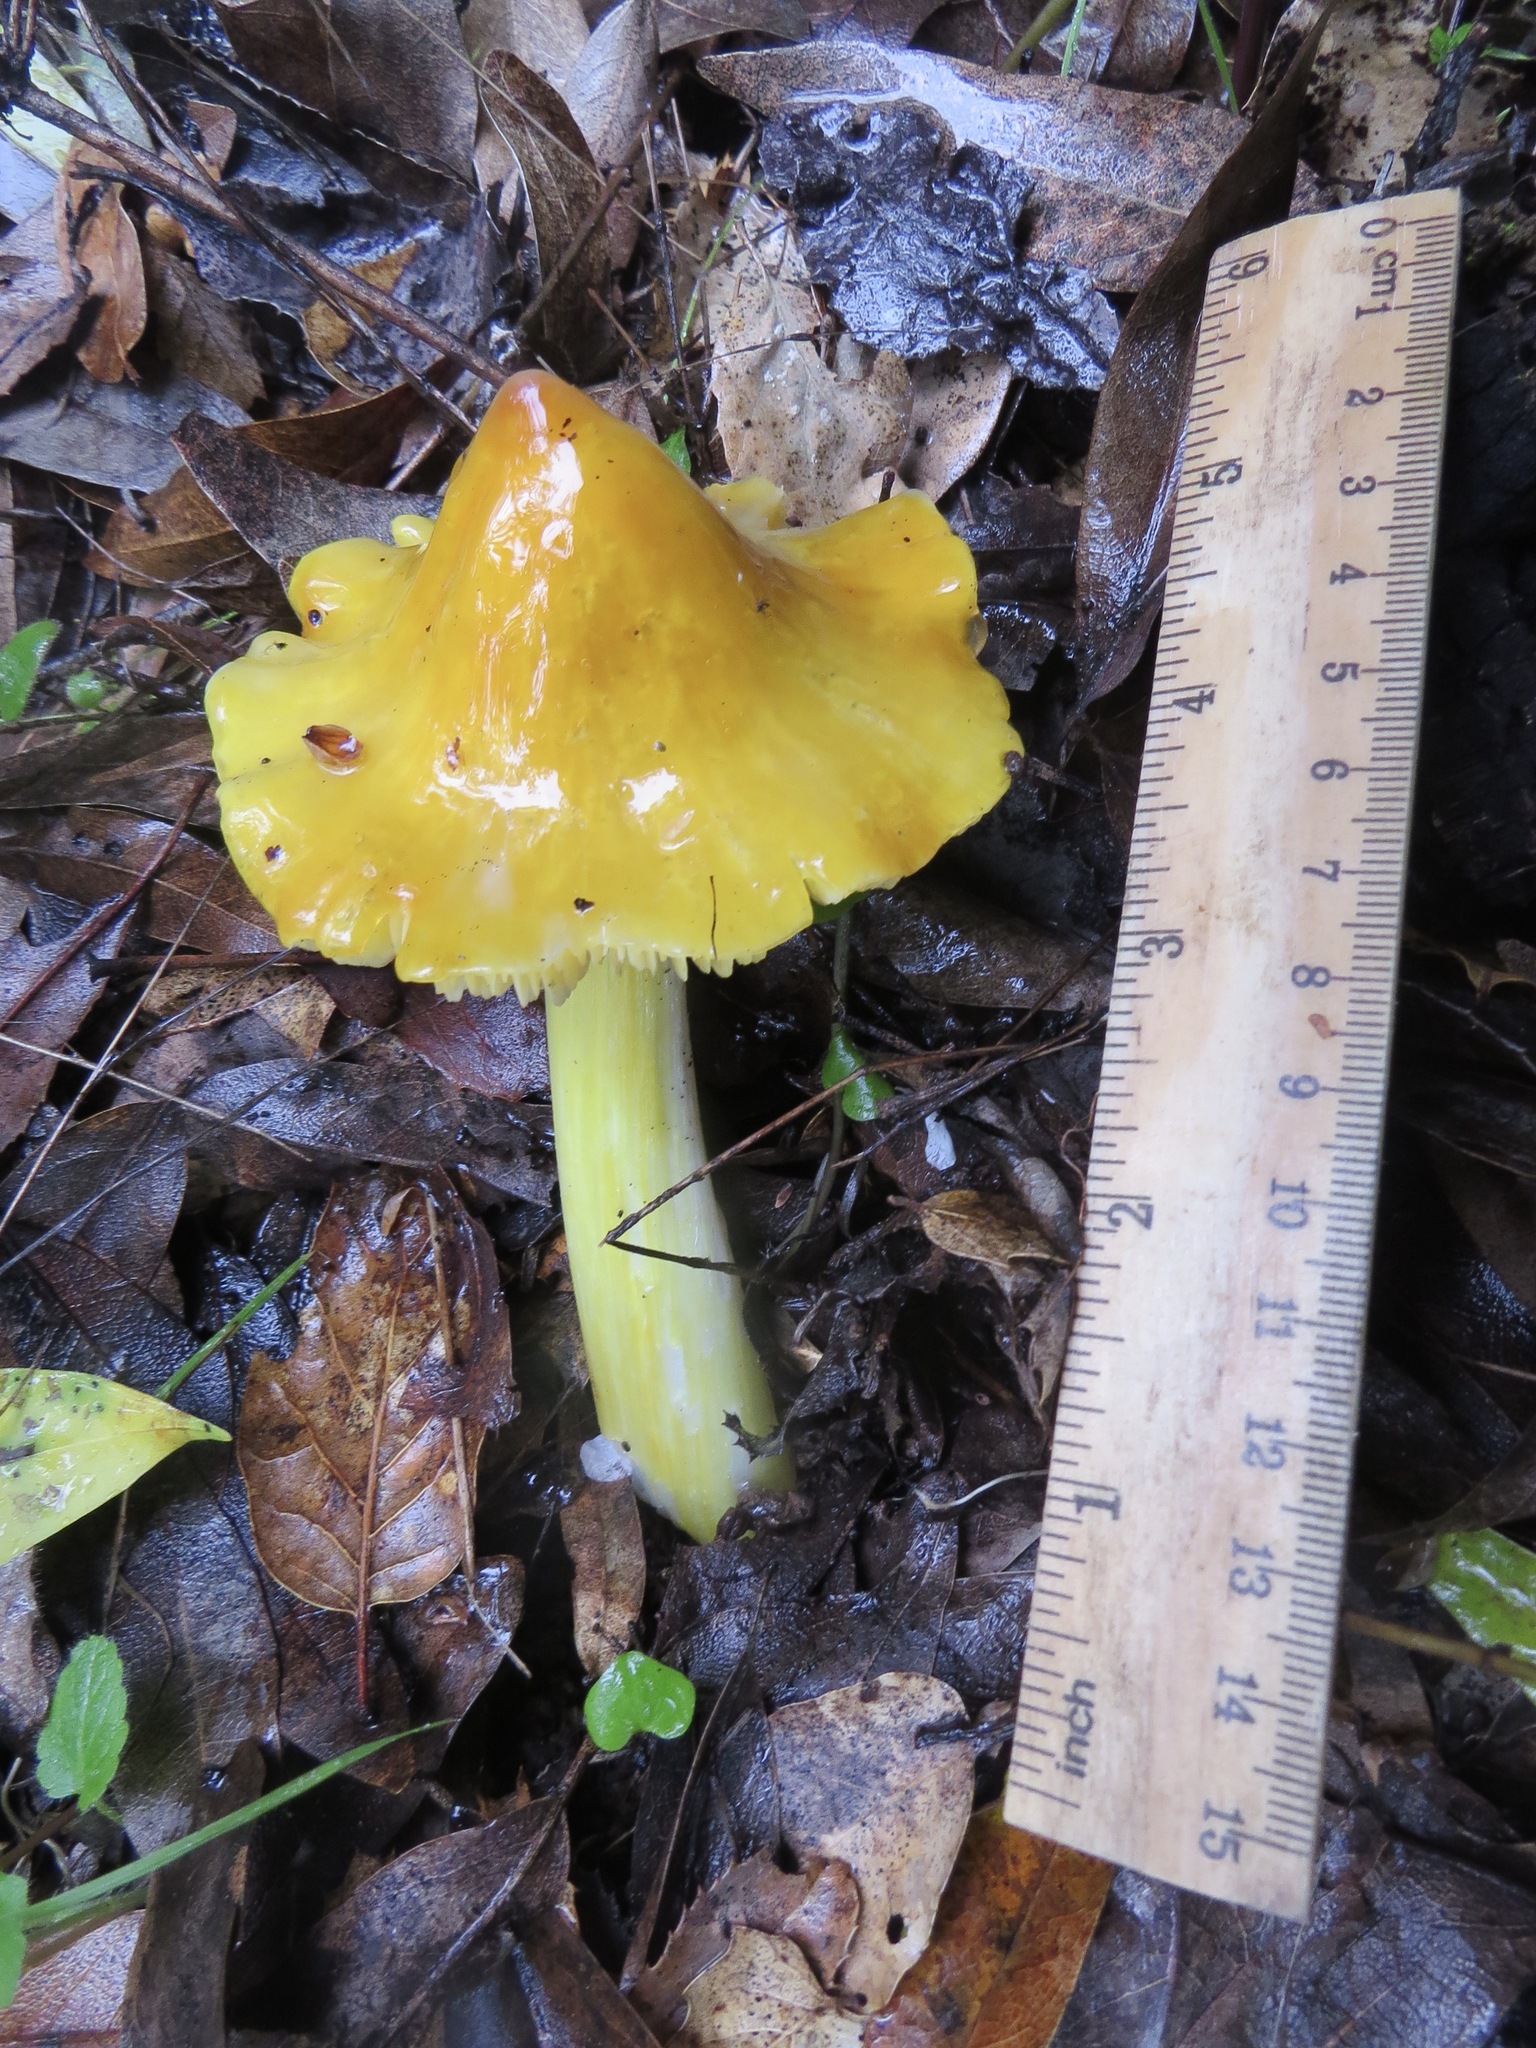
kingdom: Fungi
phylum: Basidiomycota
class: Agaricomycetes
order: Agaricales
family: Hygrophoraceae
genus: Hygrocybe
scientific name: Hygrocybe acutoconica
